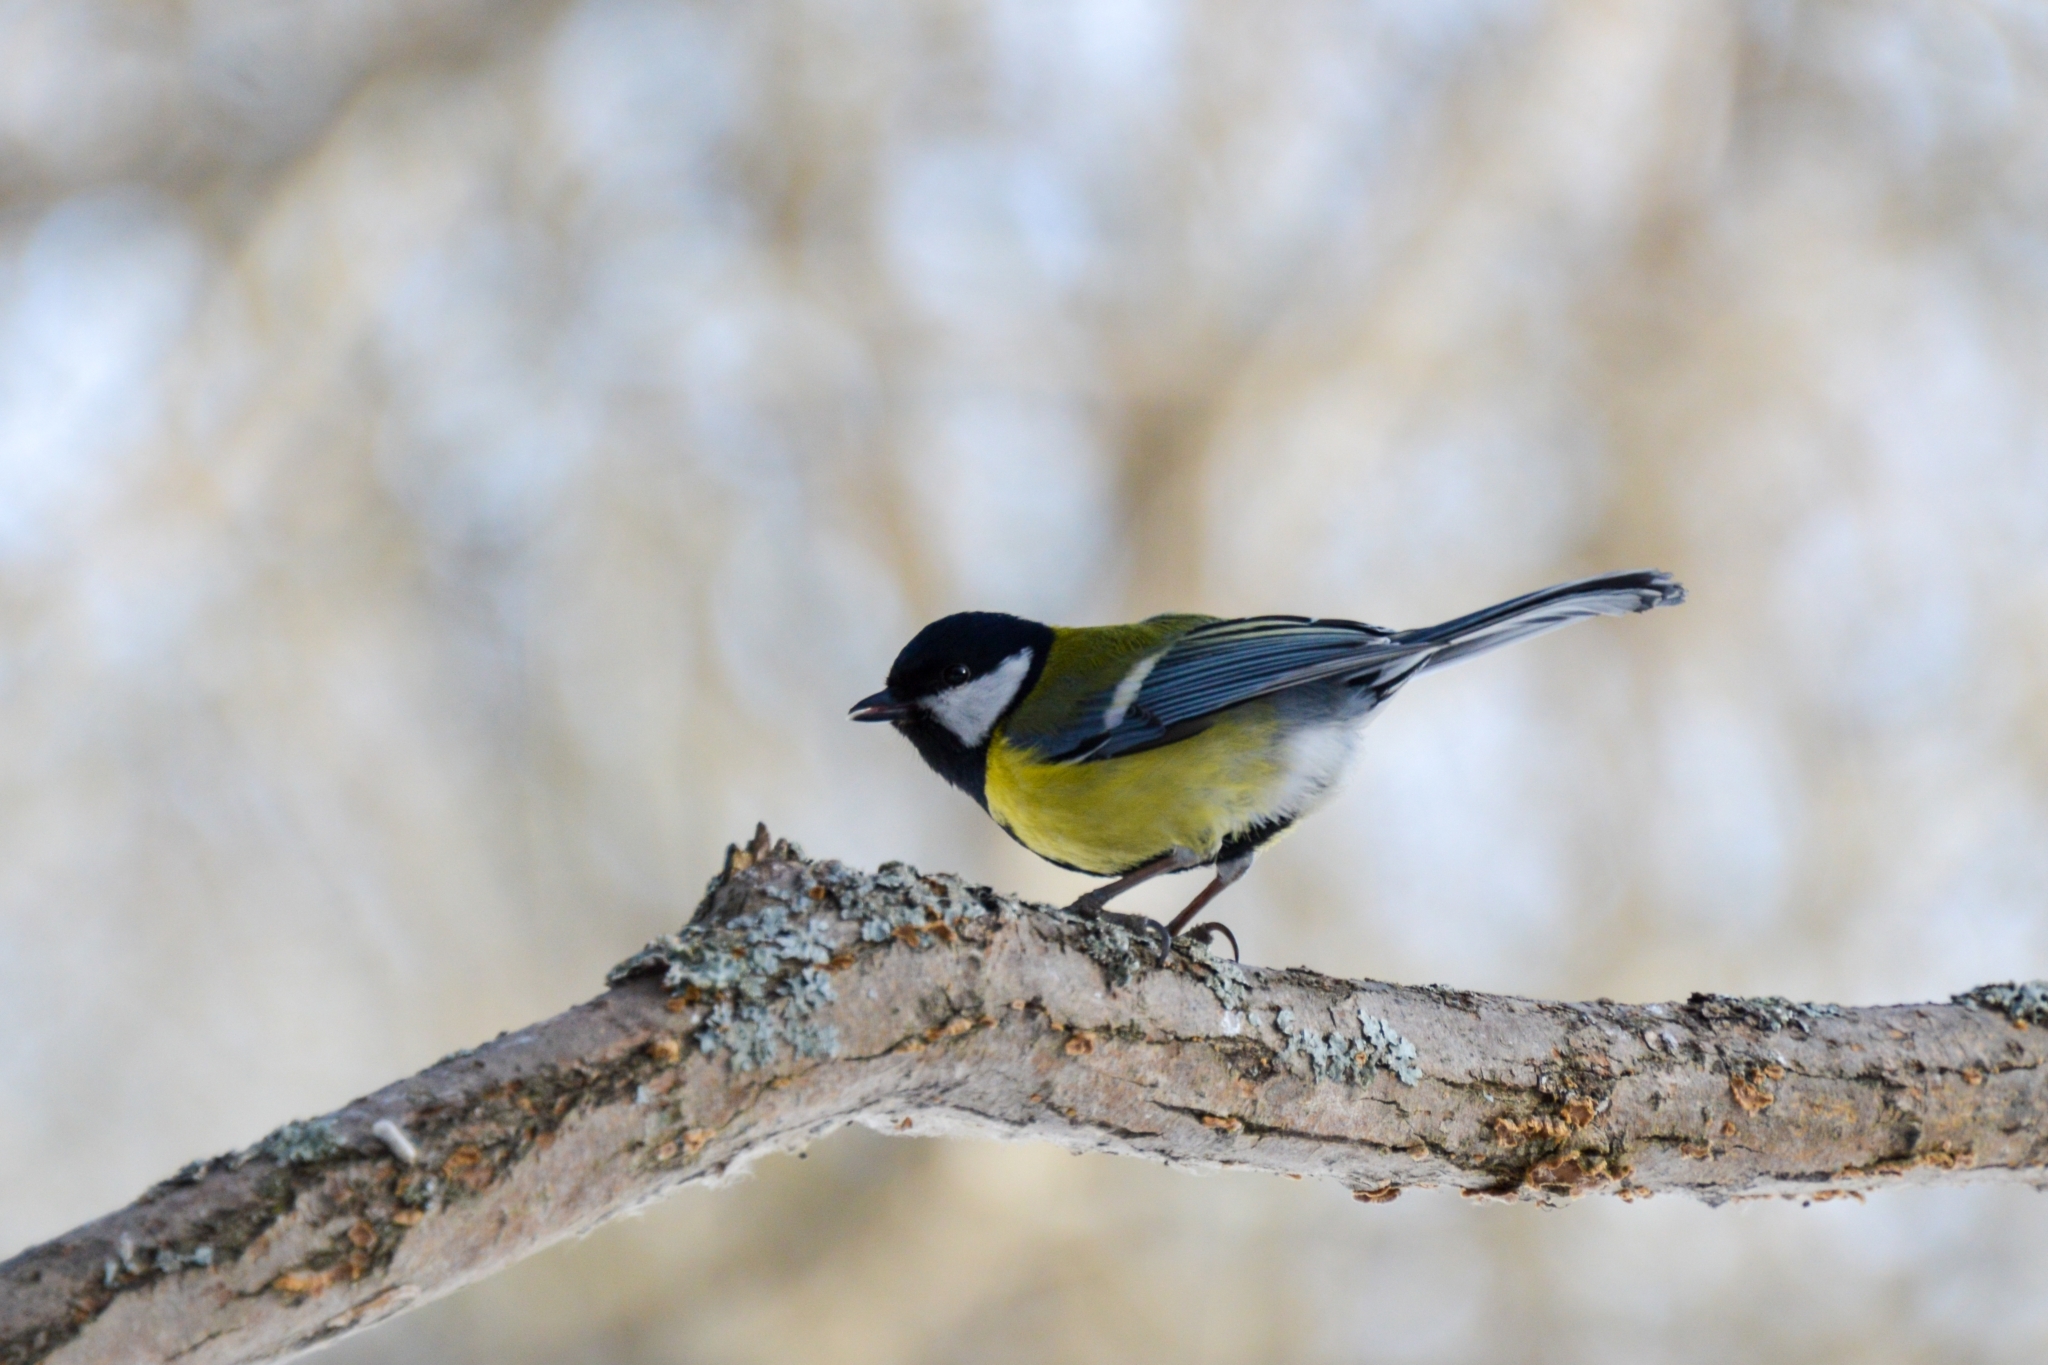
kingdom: Animalia
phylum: Chordata
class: Aves
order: Passeriformes
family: Paridae
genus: Parus
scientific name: Parus major
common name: Great tit
